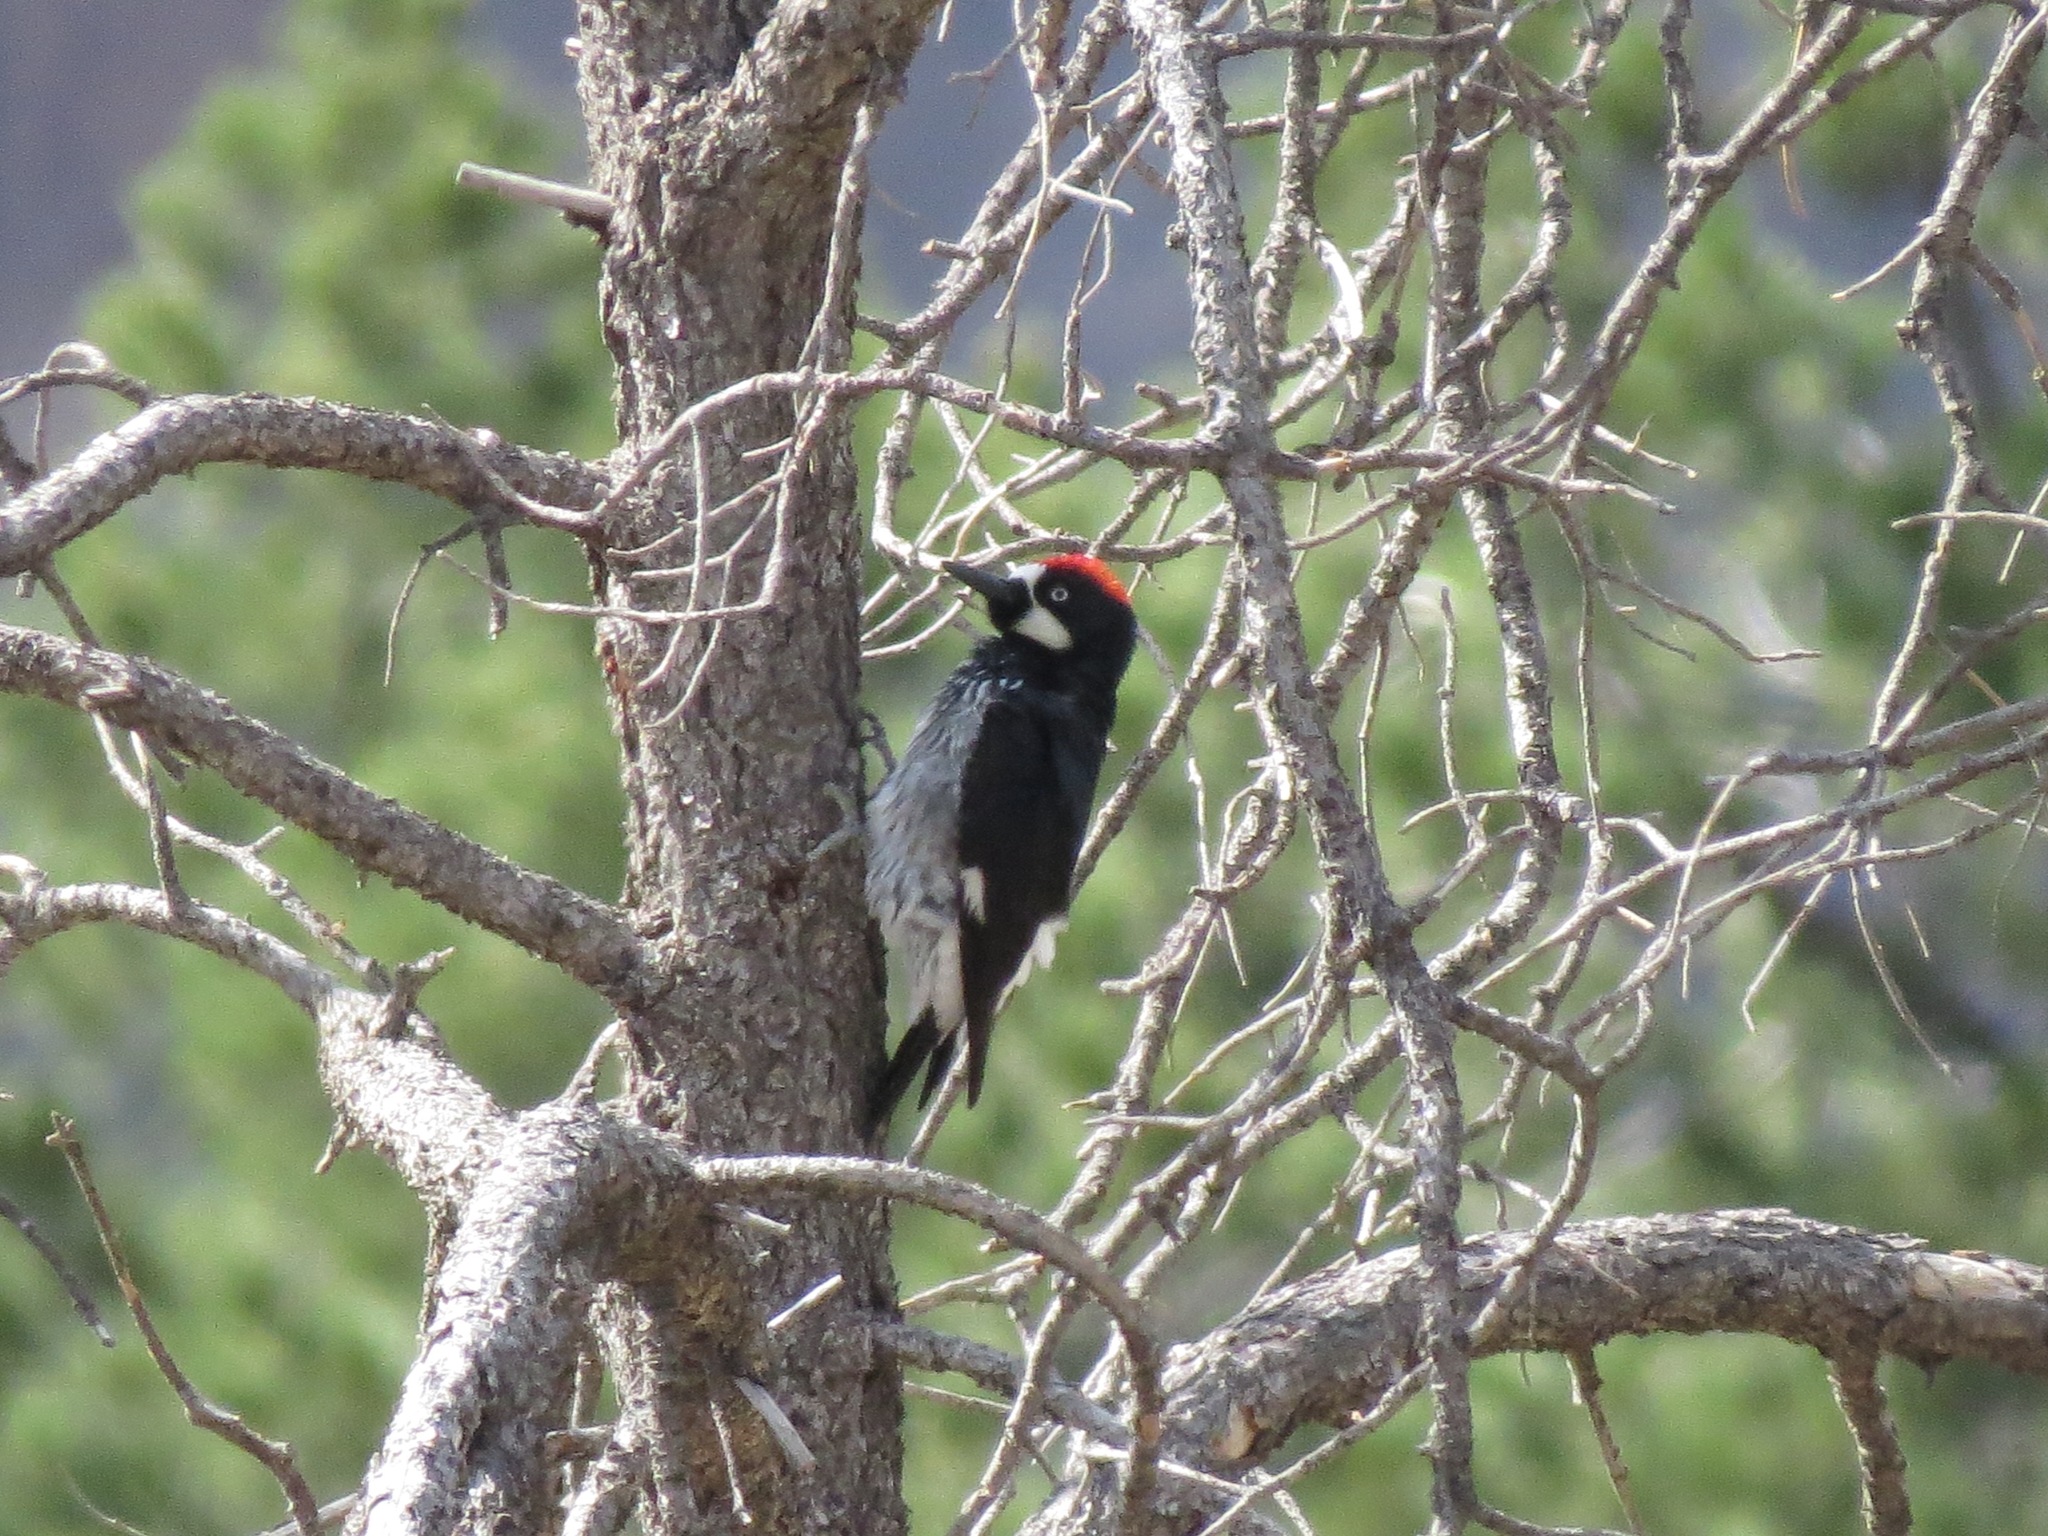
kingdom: Animalia
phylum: Chordata
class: Aves
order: Piciformes
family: Picidae
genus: Melanerpes
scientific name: Melanerpes formicivorus
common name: Acorn woodpecker
